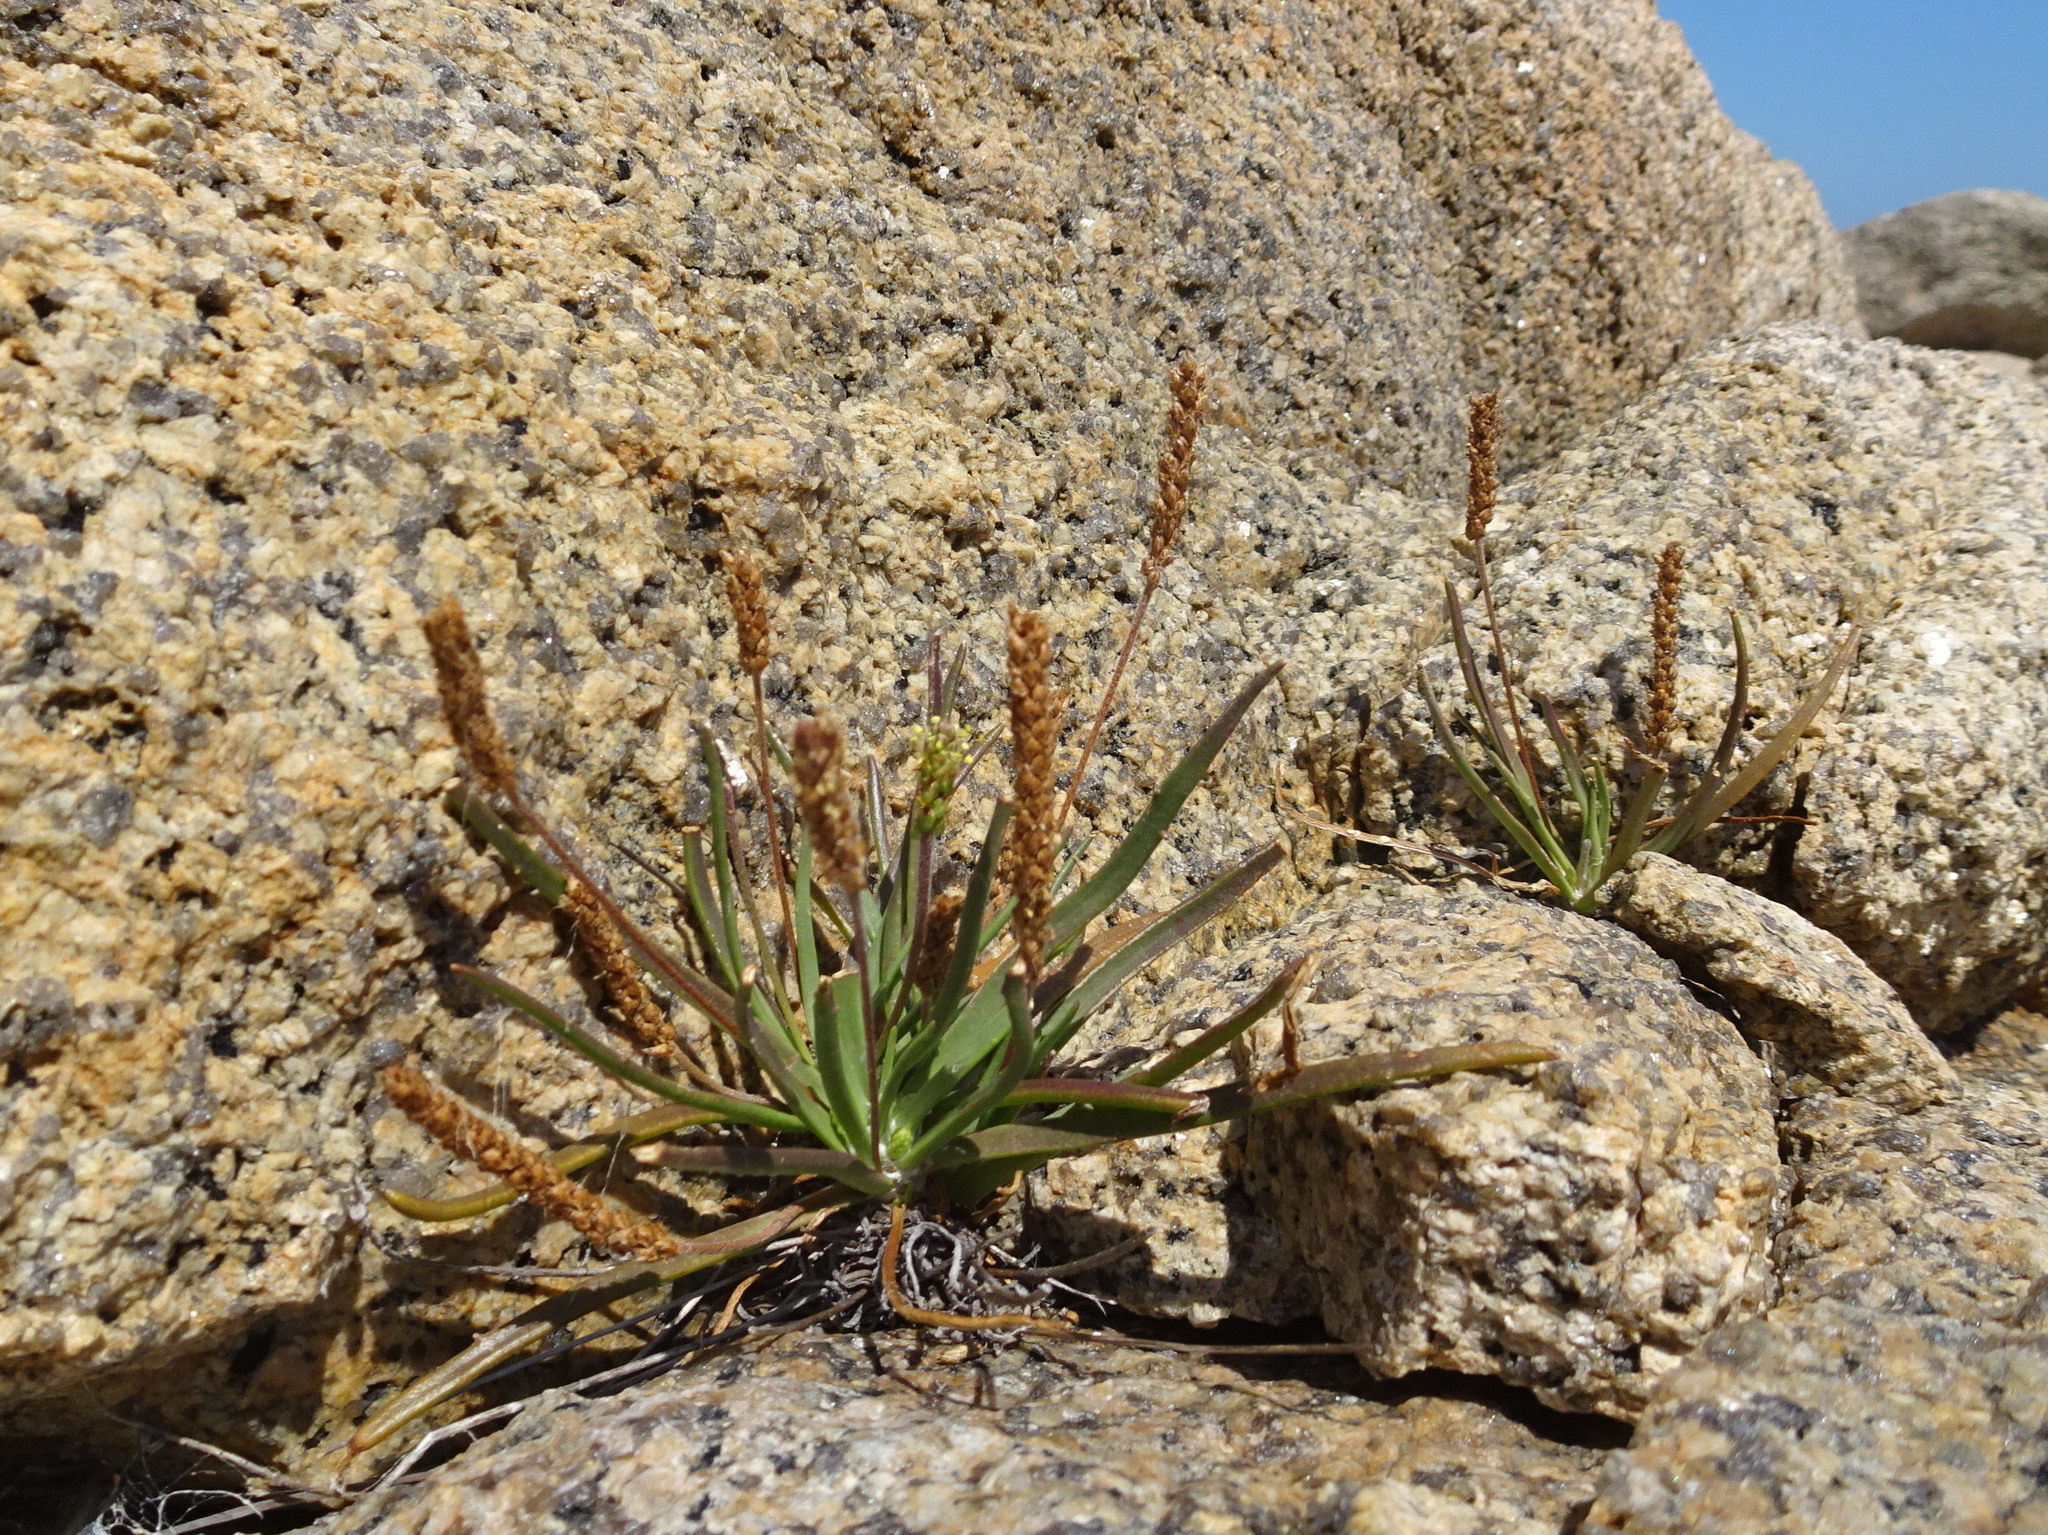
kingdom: Plantae
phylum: Tracheophyta
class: Magnoliopsida
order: Lamiales
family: Plantaginaceae
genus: Plantago
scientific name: Plantago maritima
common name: Sea plantain
